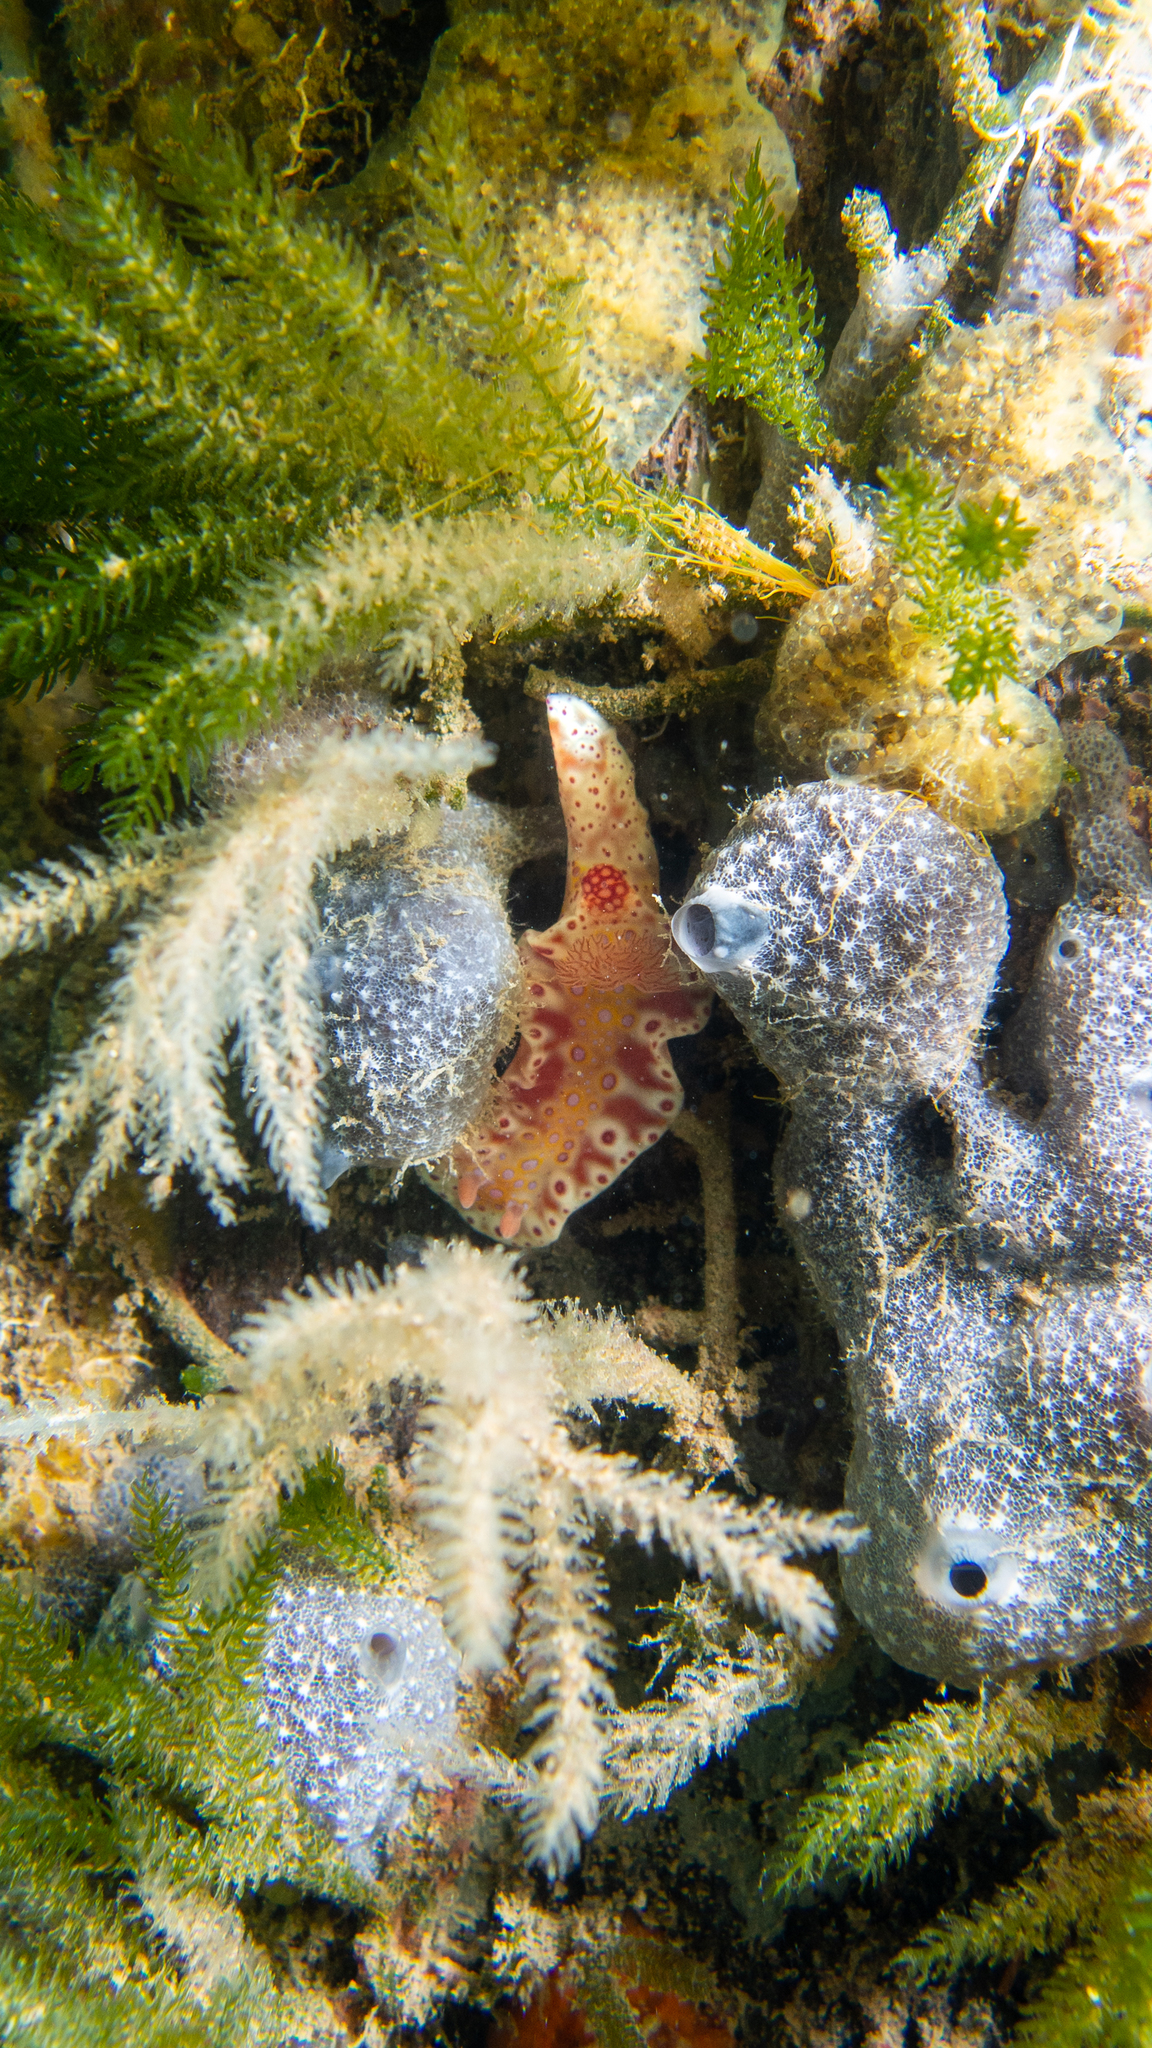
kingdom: Animalia
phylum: Mollusca
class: Gastropoda
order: Nudibranchia
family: Chromodorididae
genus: Ceratosoma
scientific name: Ceratosoma brevicaudatum
